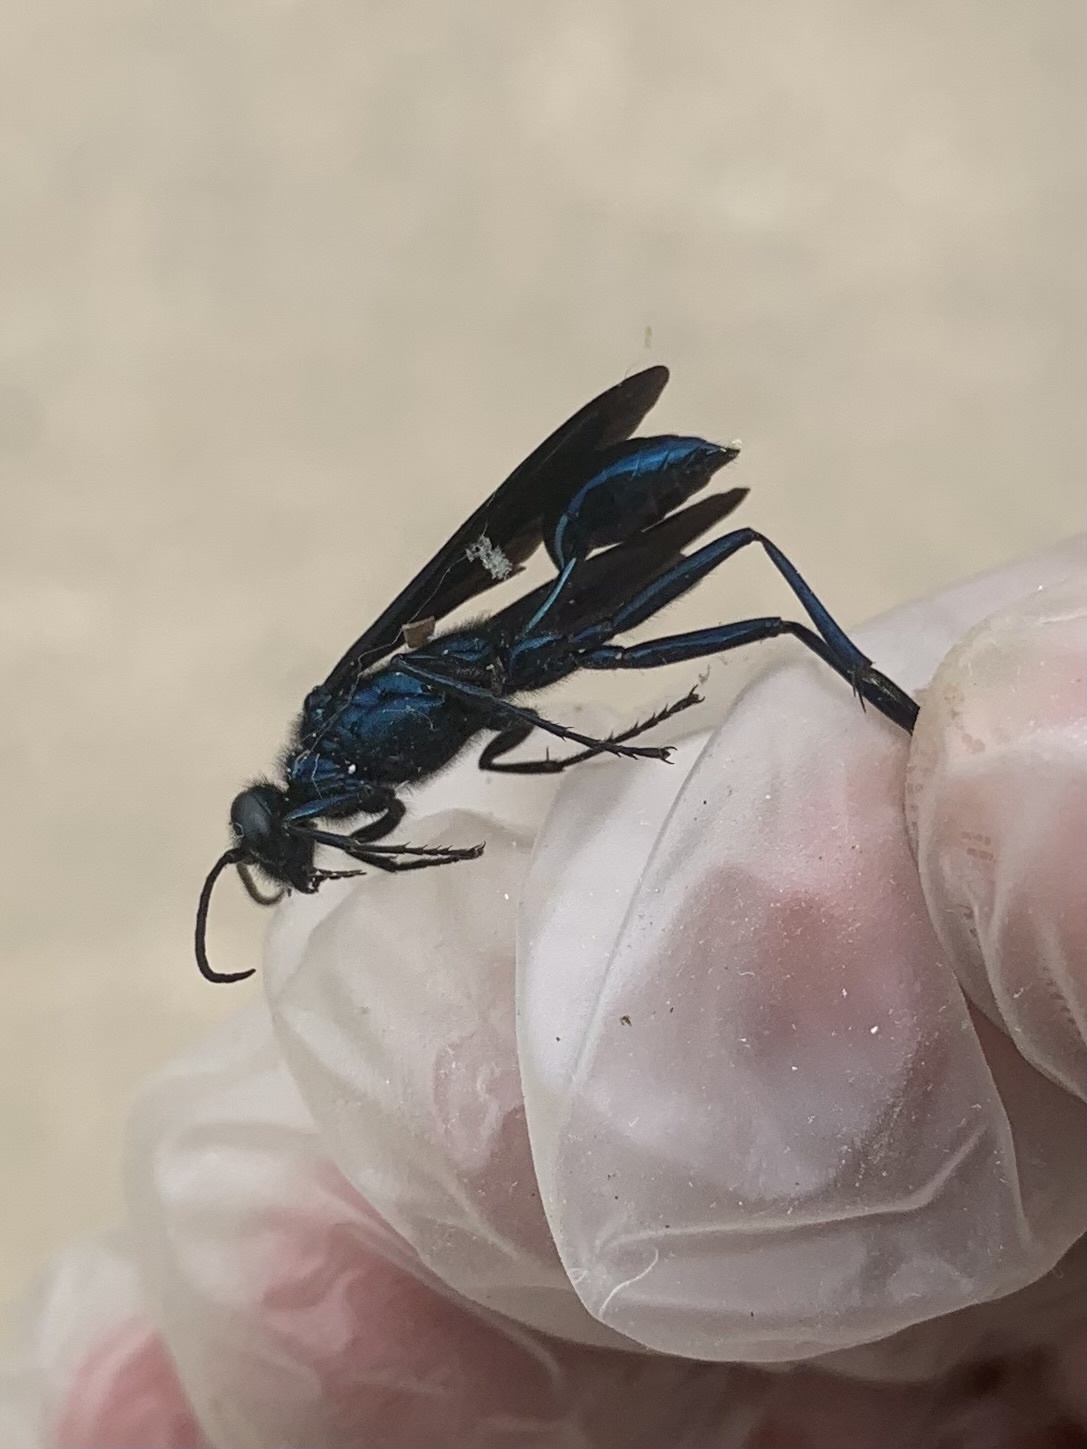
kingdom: Animalia
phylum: Arthropoda
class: Insecta
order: Hymenoptera
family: Sphecidae
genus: Chalybion
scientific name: Chalybion californicum
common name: Mud dauber
